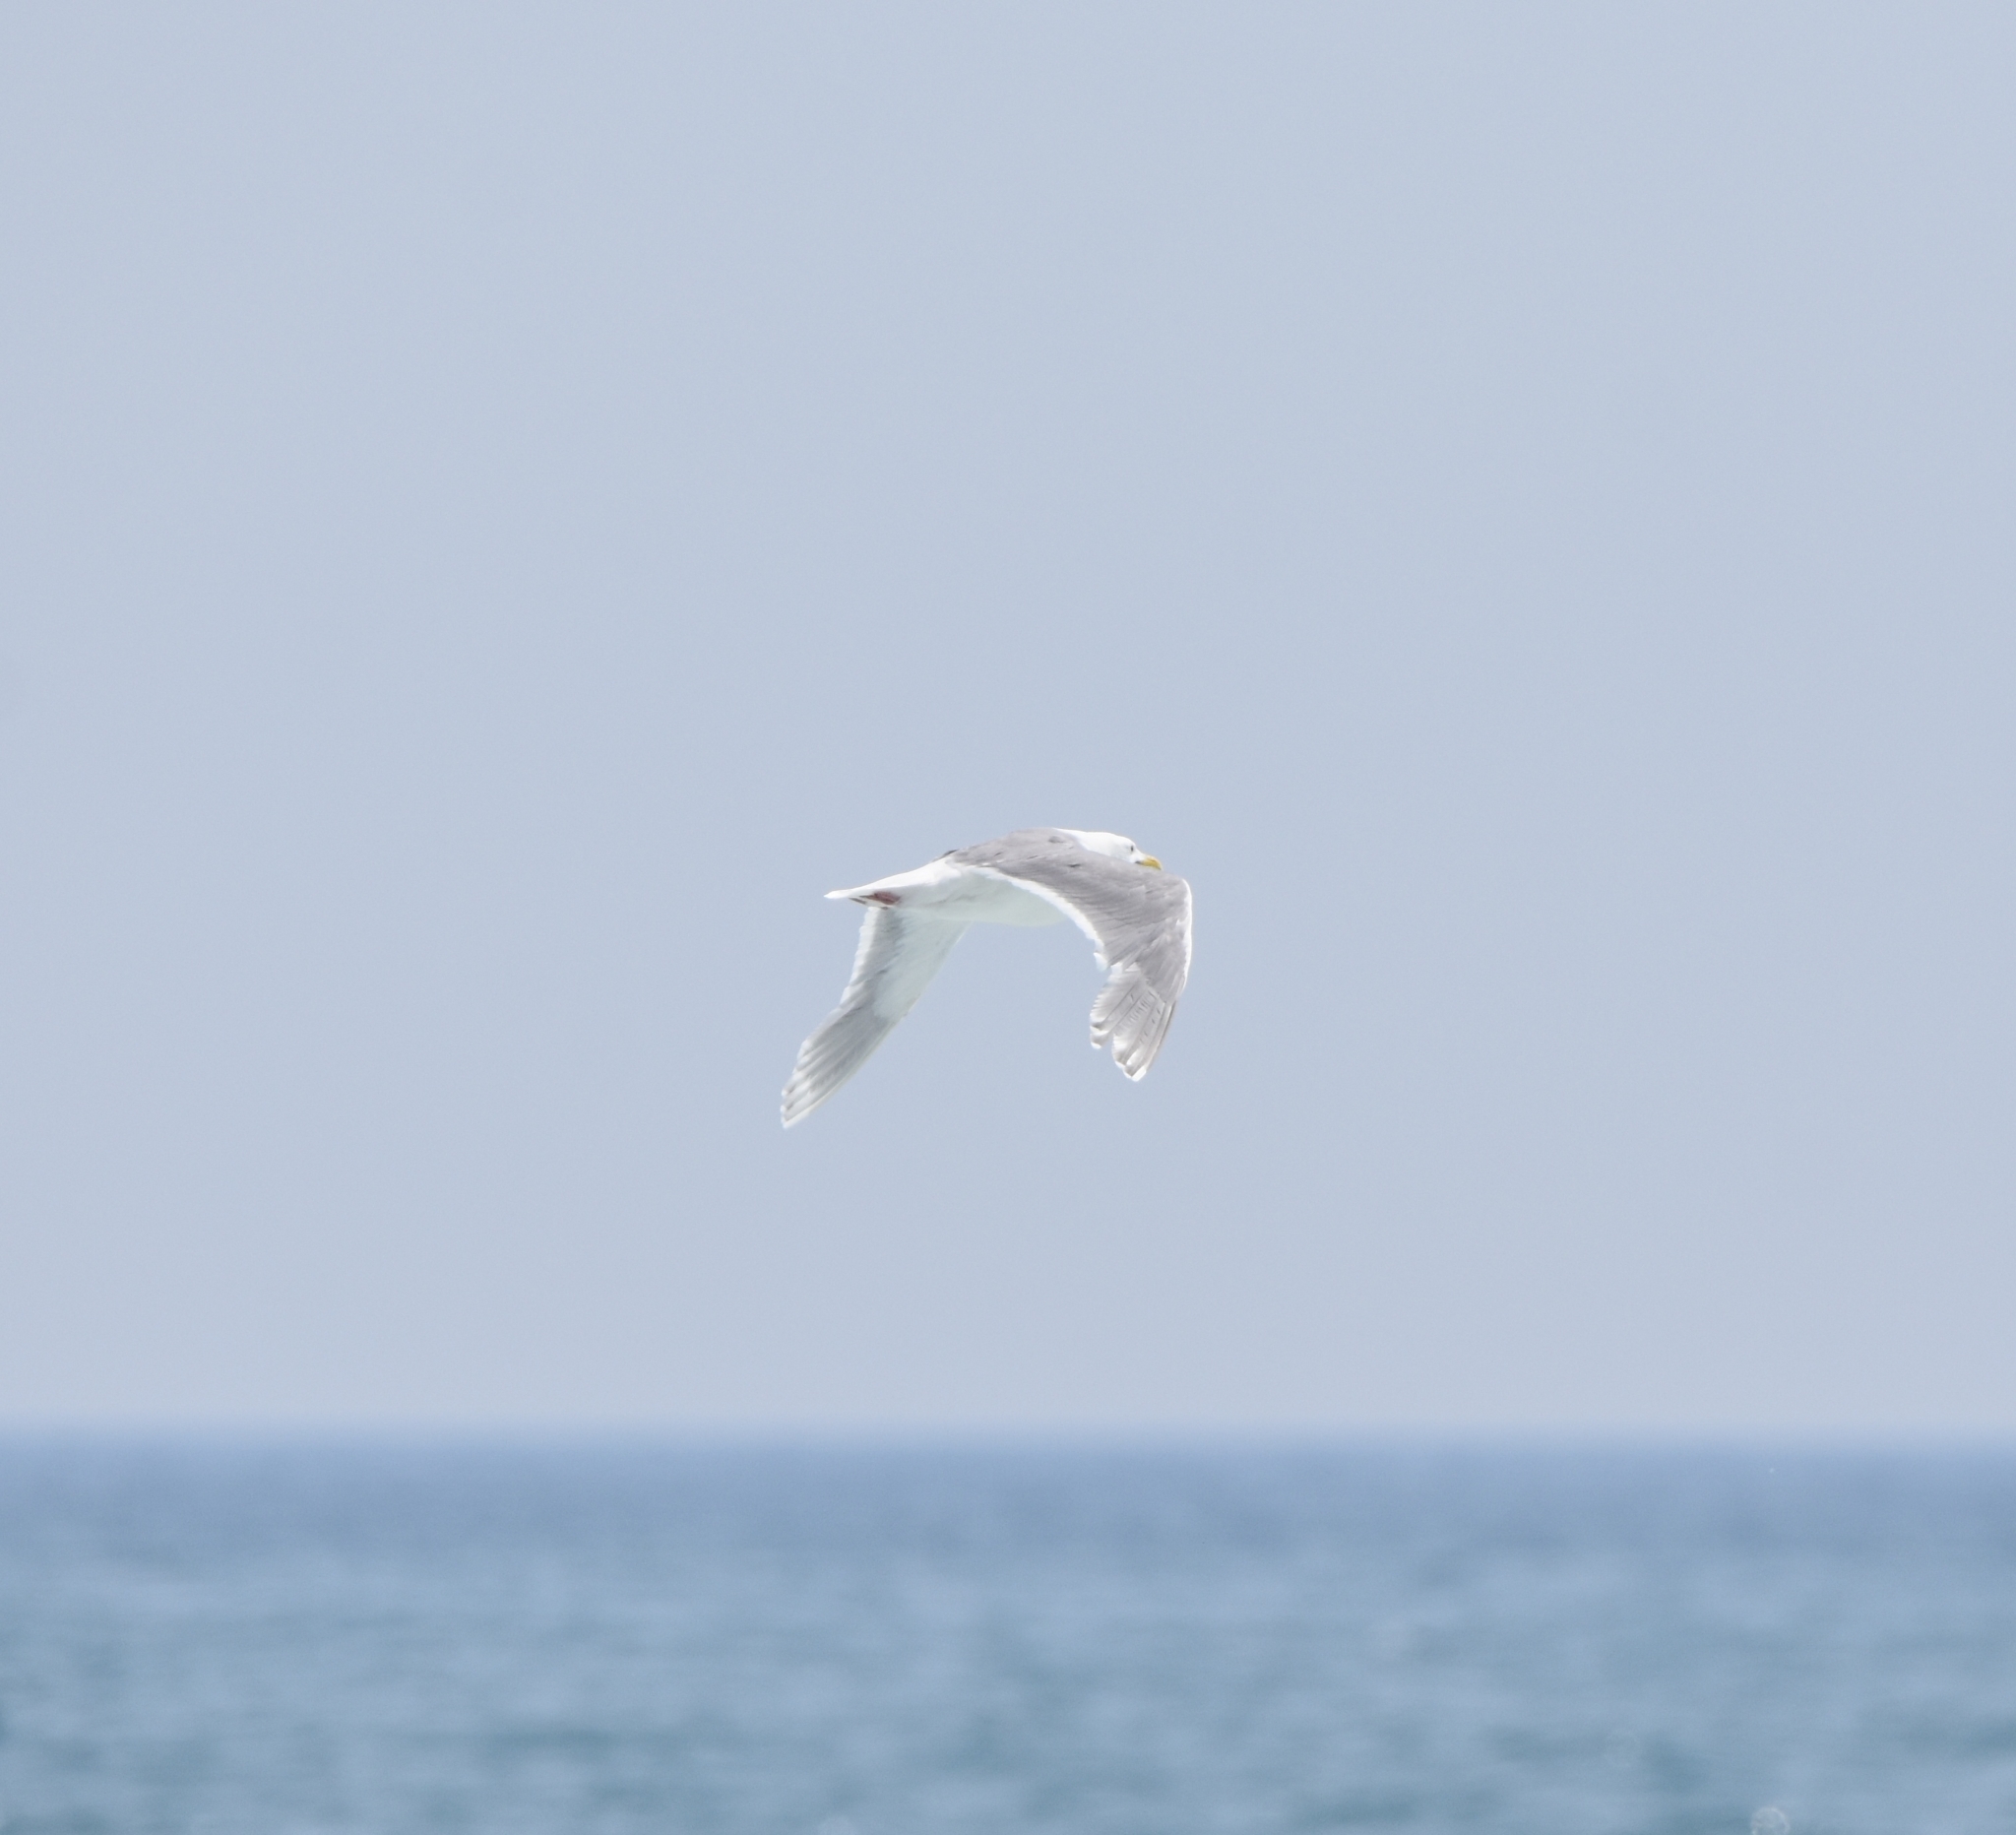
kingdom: Animalia
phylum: Chordata
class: Aves
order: Charadriiformes
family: Laridae
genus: Larus
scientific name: Larus glaucescens
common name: Glaucous-winged gull
